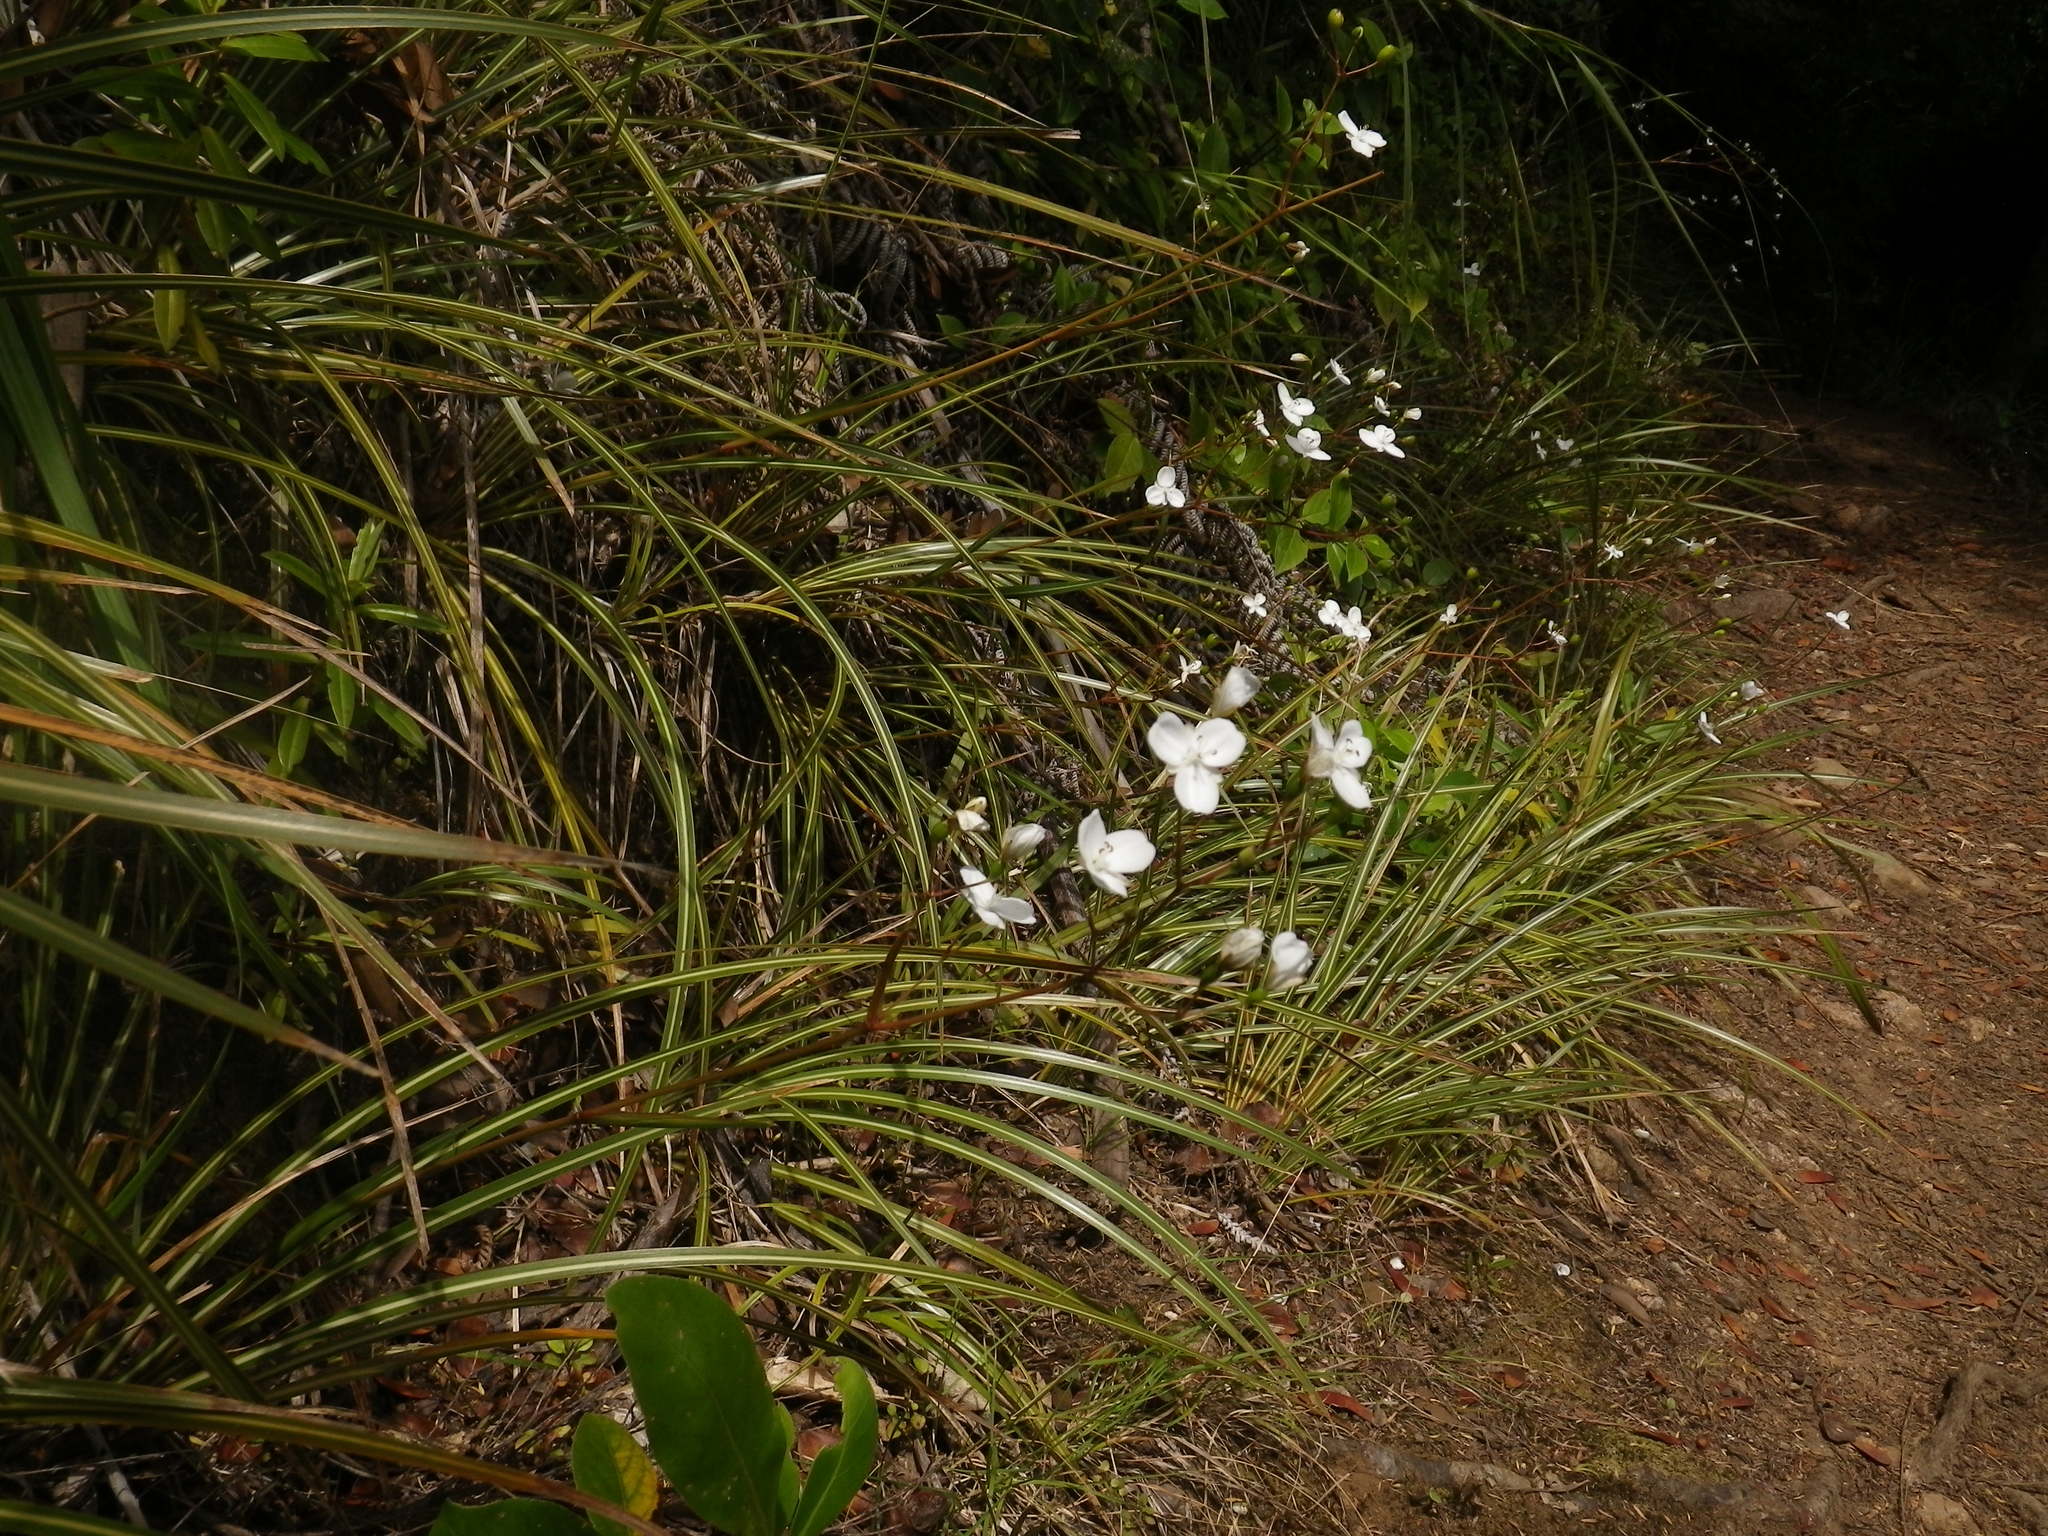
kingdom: Plantae
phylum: Tracheophyta
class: Liliopsida
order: Asparagales
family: Iridaceae
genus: Libertia
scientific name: Libertia ixioides
